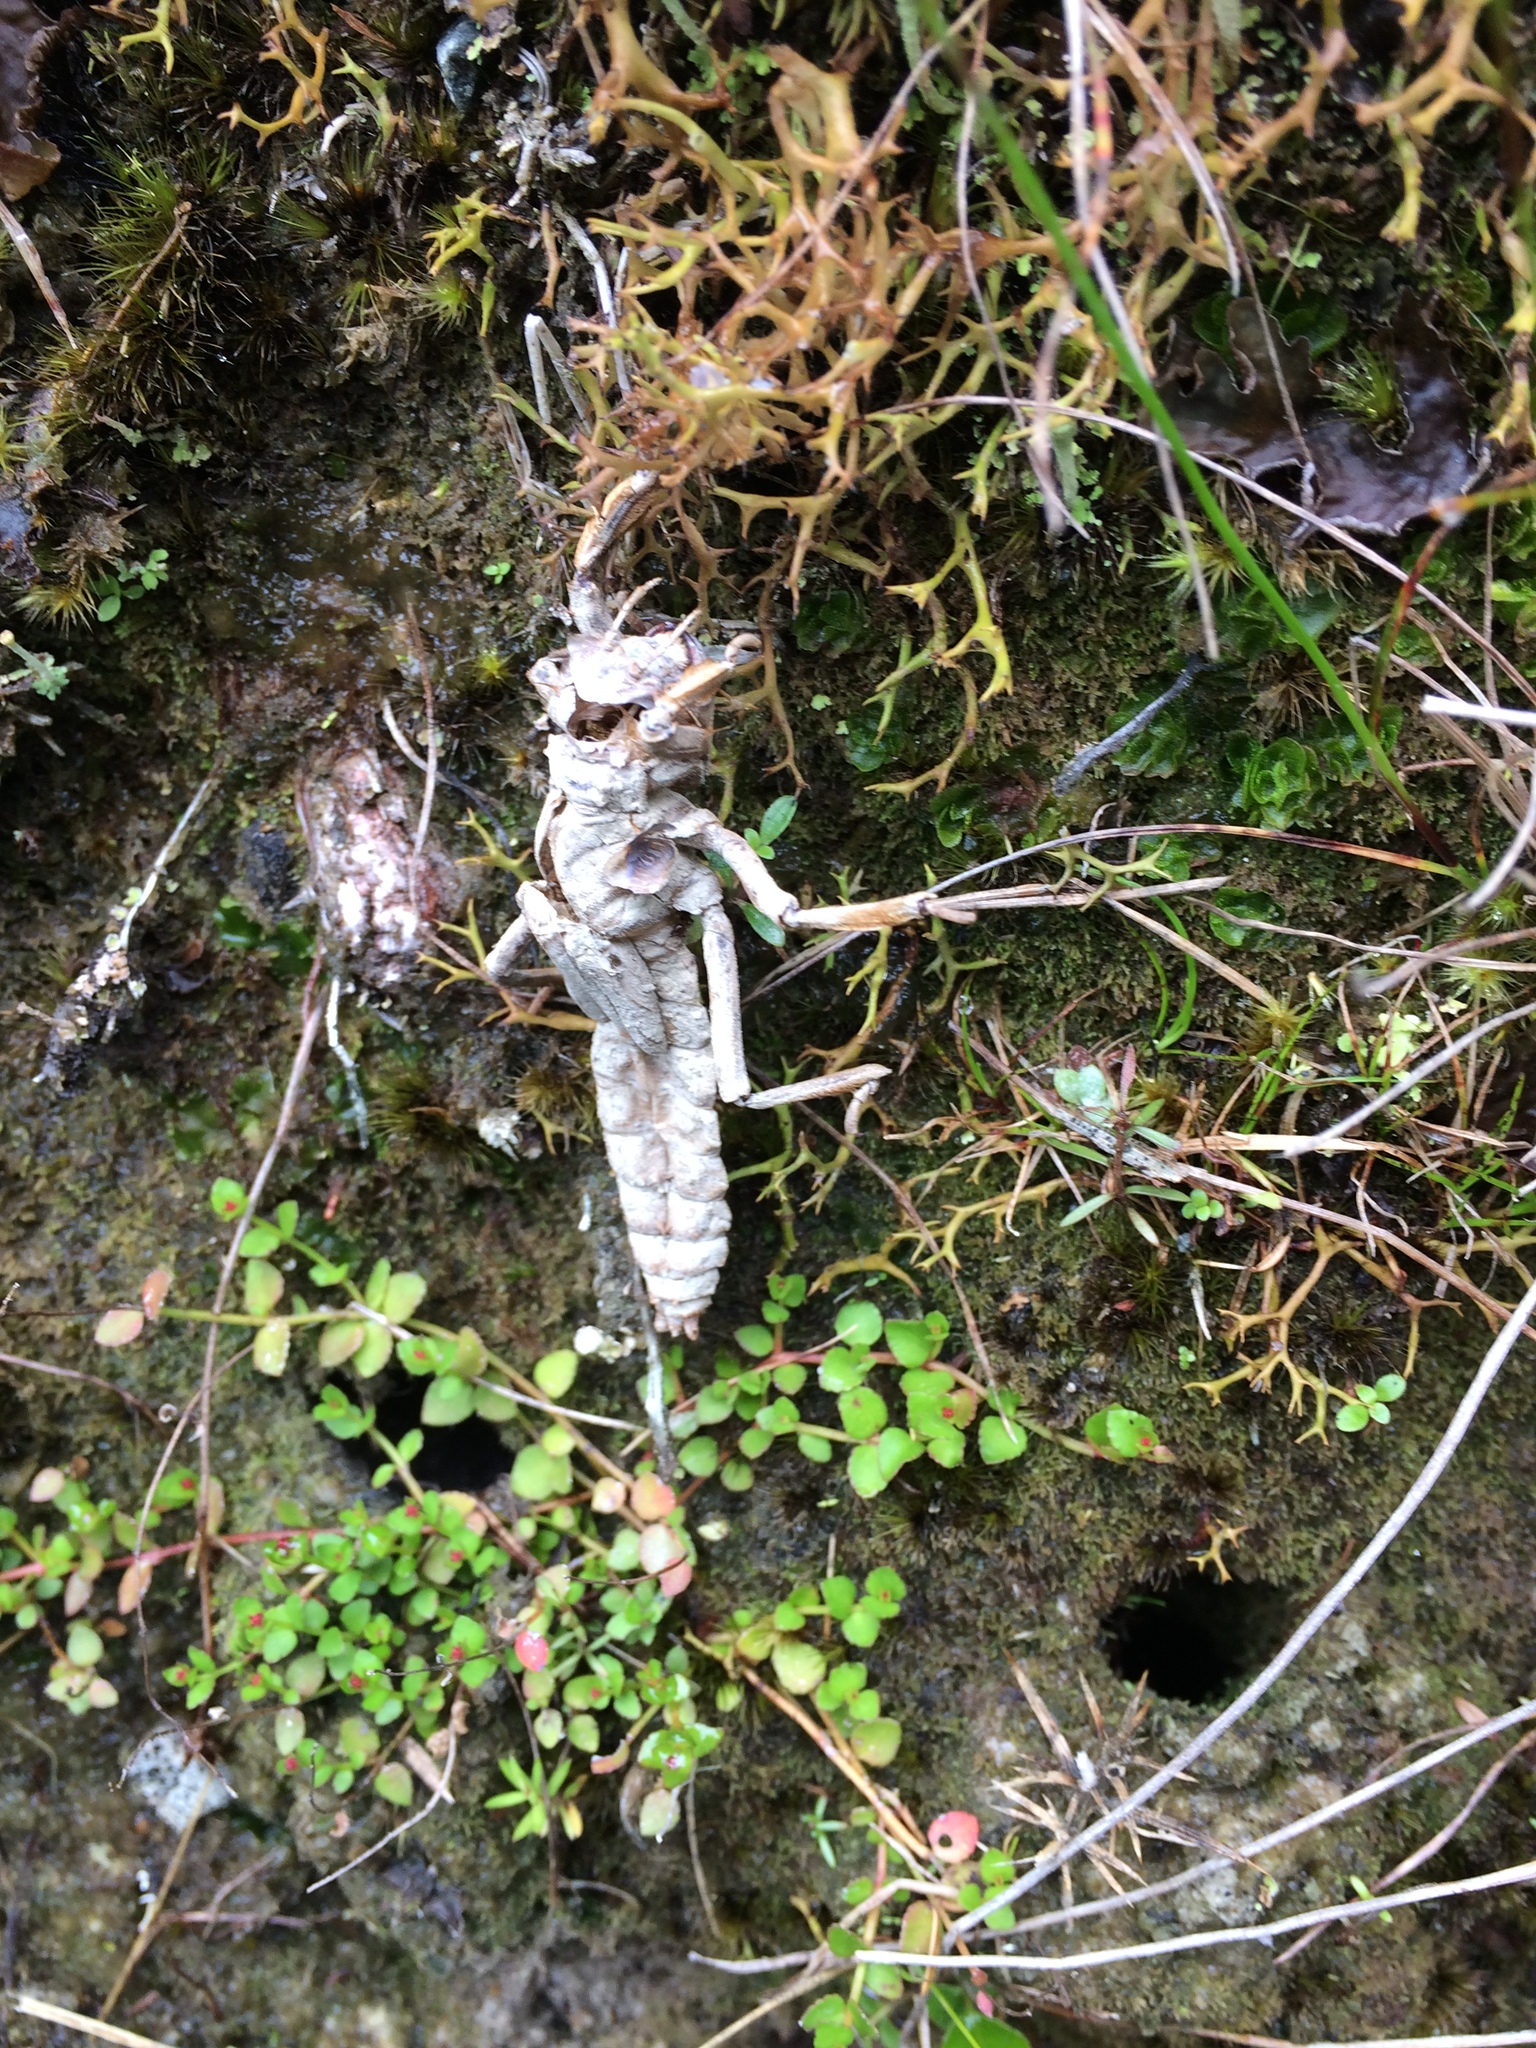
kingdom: Animalia
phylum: Arthropoda
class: Insecta
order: Odonata
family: Petaluridae
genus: Uropetala
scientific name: Uropetala carovei
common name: Bush giant dragonfly
